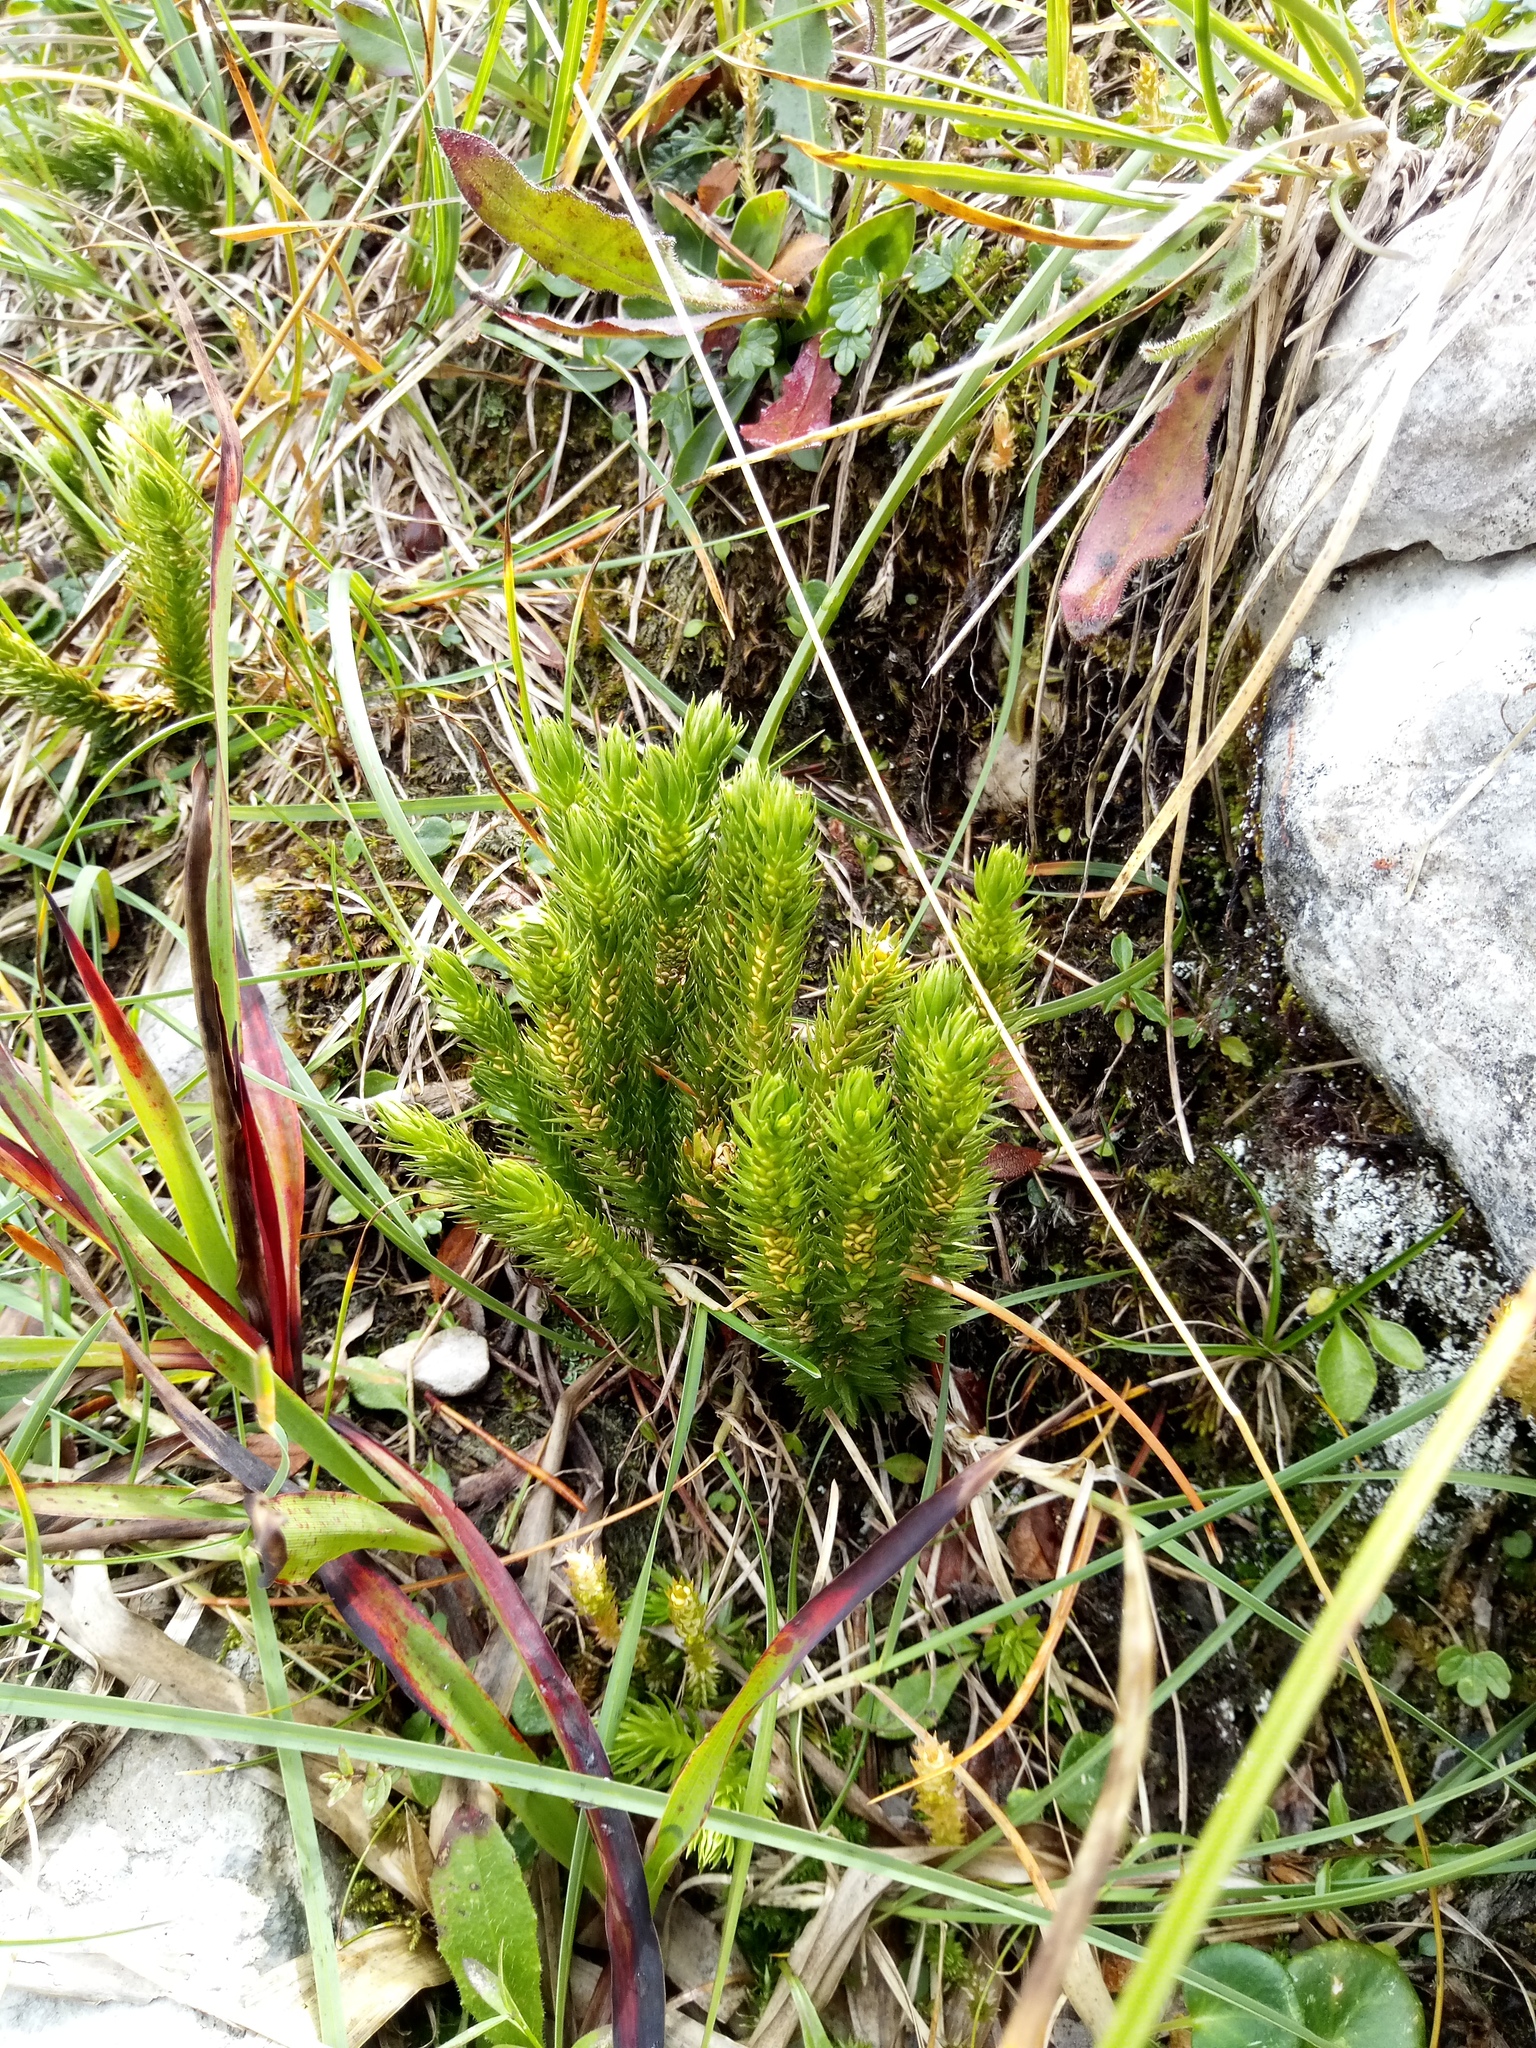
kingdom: Plantae
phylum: Tracheophyta
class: Lycopodiopsida
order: Lycopodiales
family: Lycopodiaceae
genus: Huperzia
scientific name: Huperzia selago
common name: Northern firmoss
